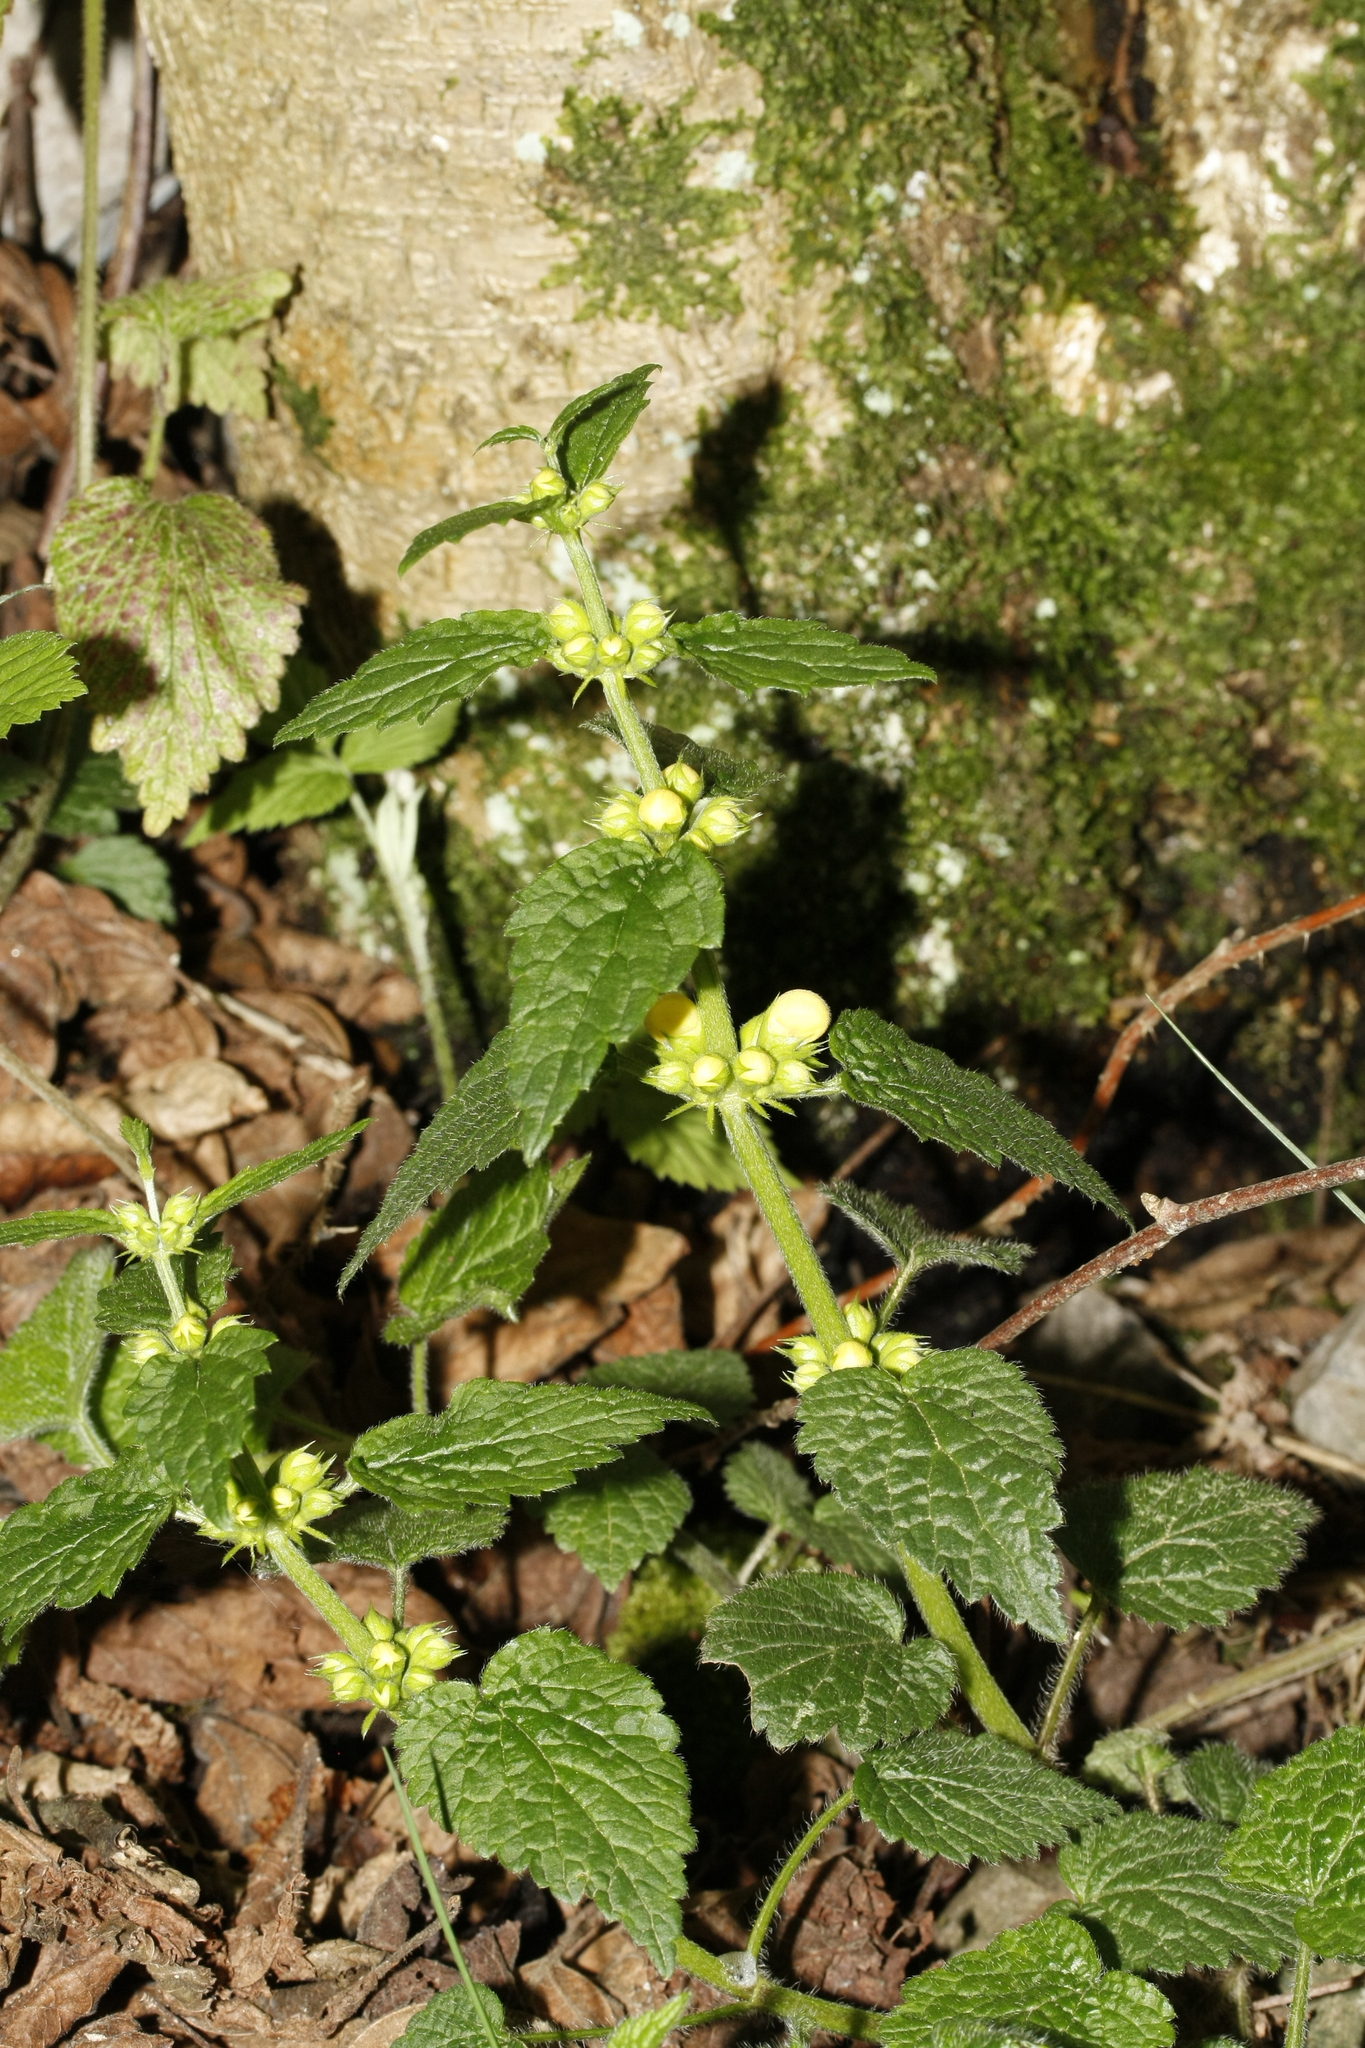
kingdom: Plantae
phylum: Tracheophyta
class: Magnoliopsida
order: Lamiales
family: Lamiaceae
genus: Lamium
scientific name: Lamium galeobdolon
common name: Yellow archangel
